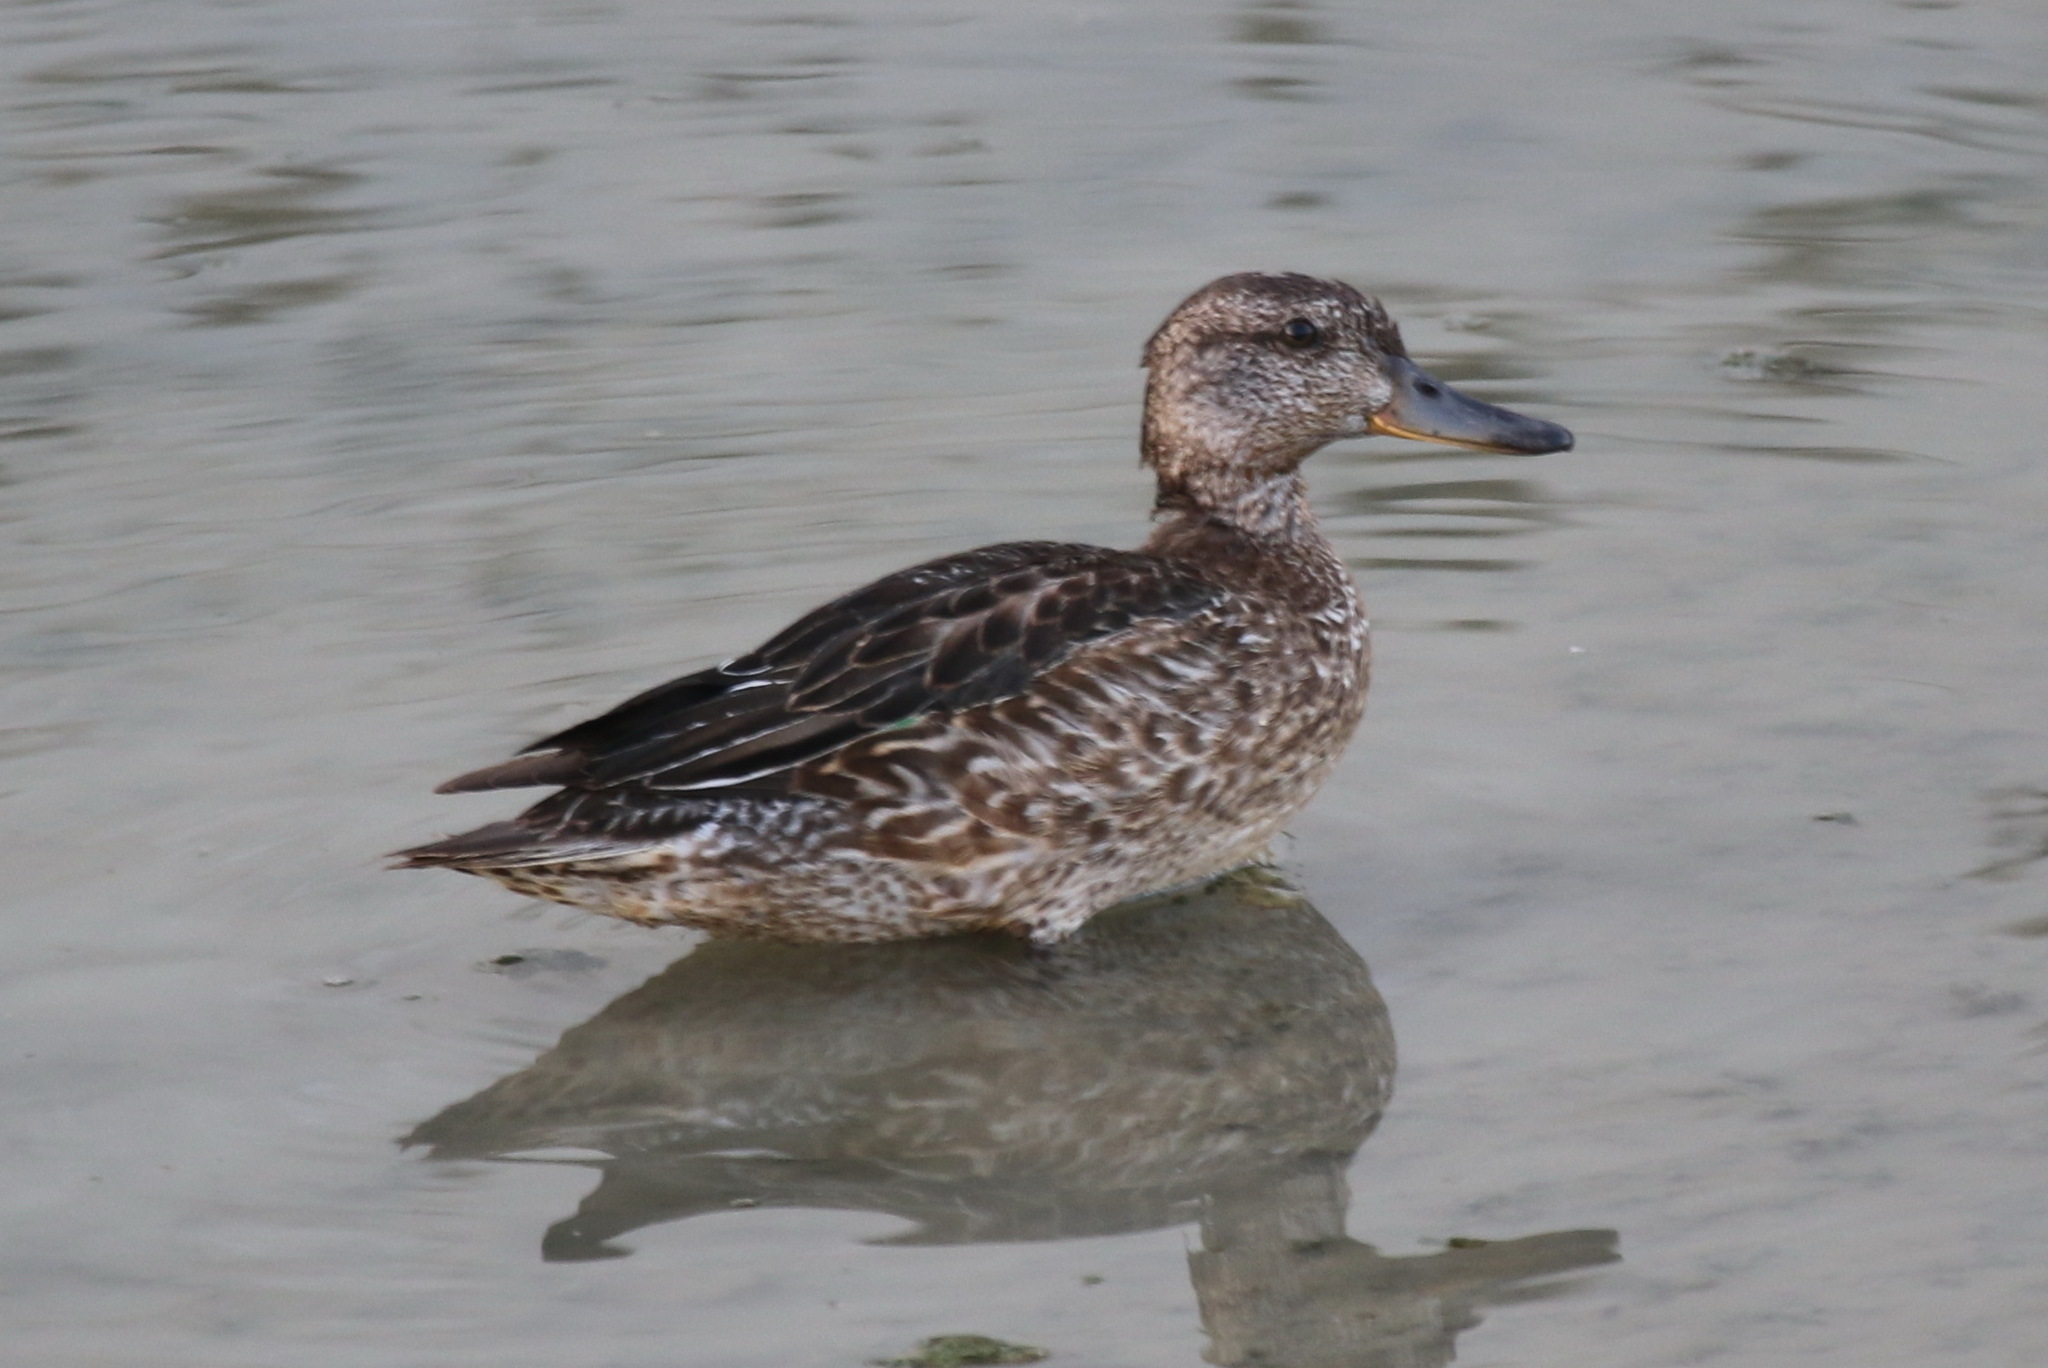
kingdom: Animalia
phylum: Chordata
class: Aves
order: Anseriformes
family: Anatidae
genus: Anas
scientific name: Anas crecca
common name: Eurasian teal
